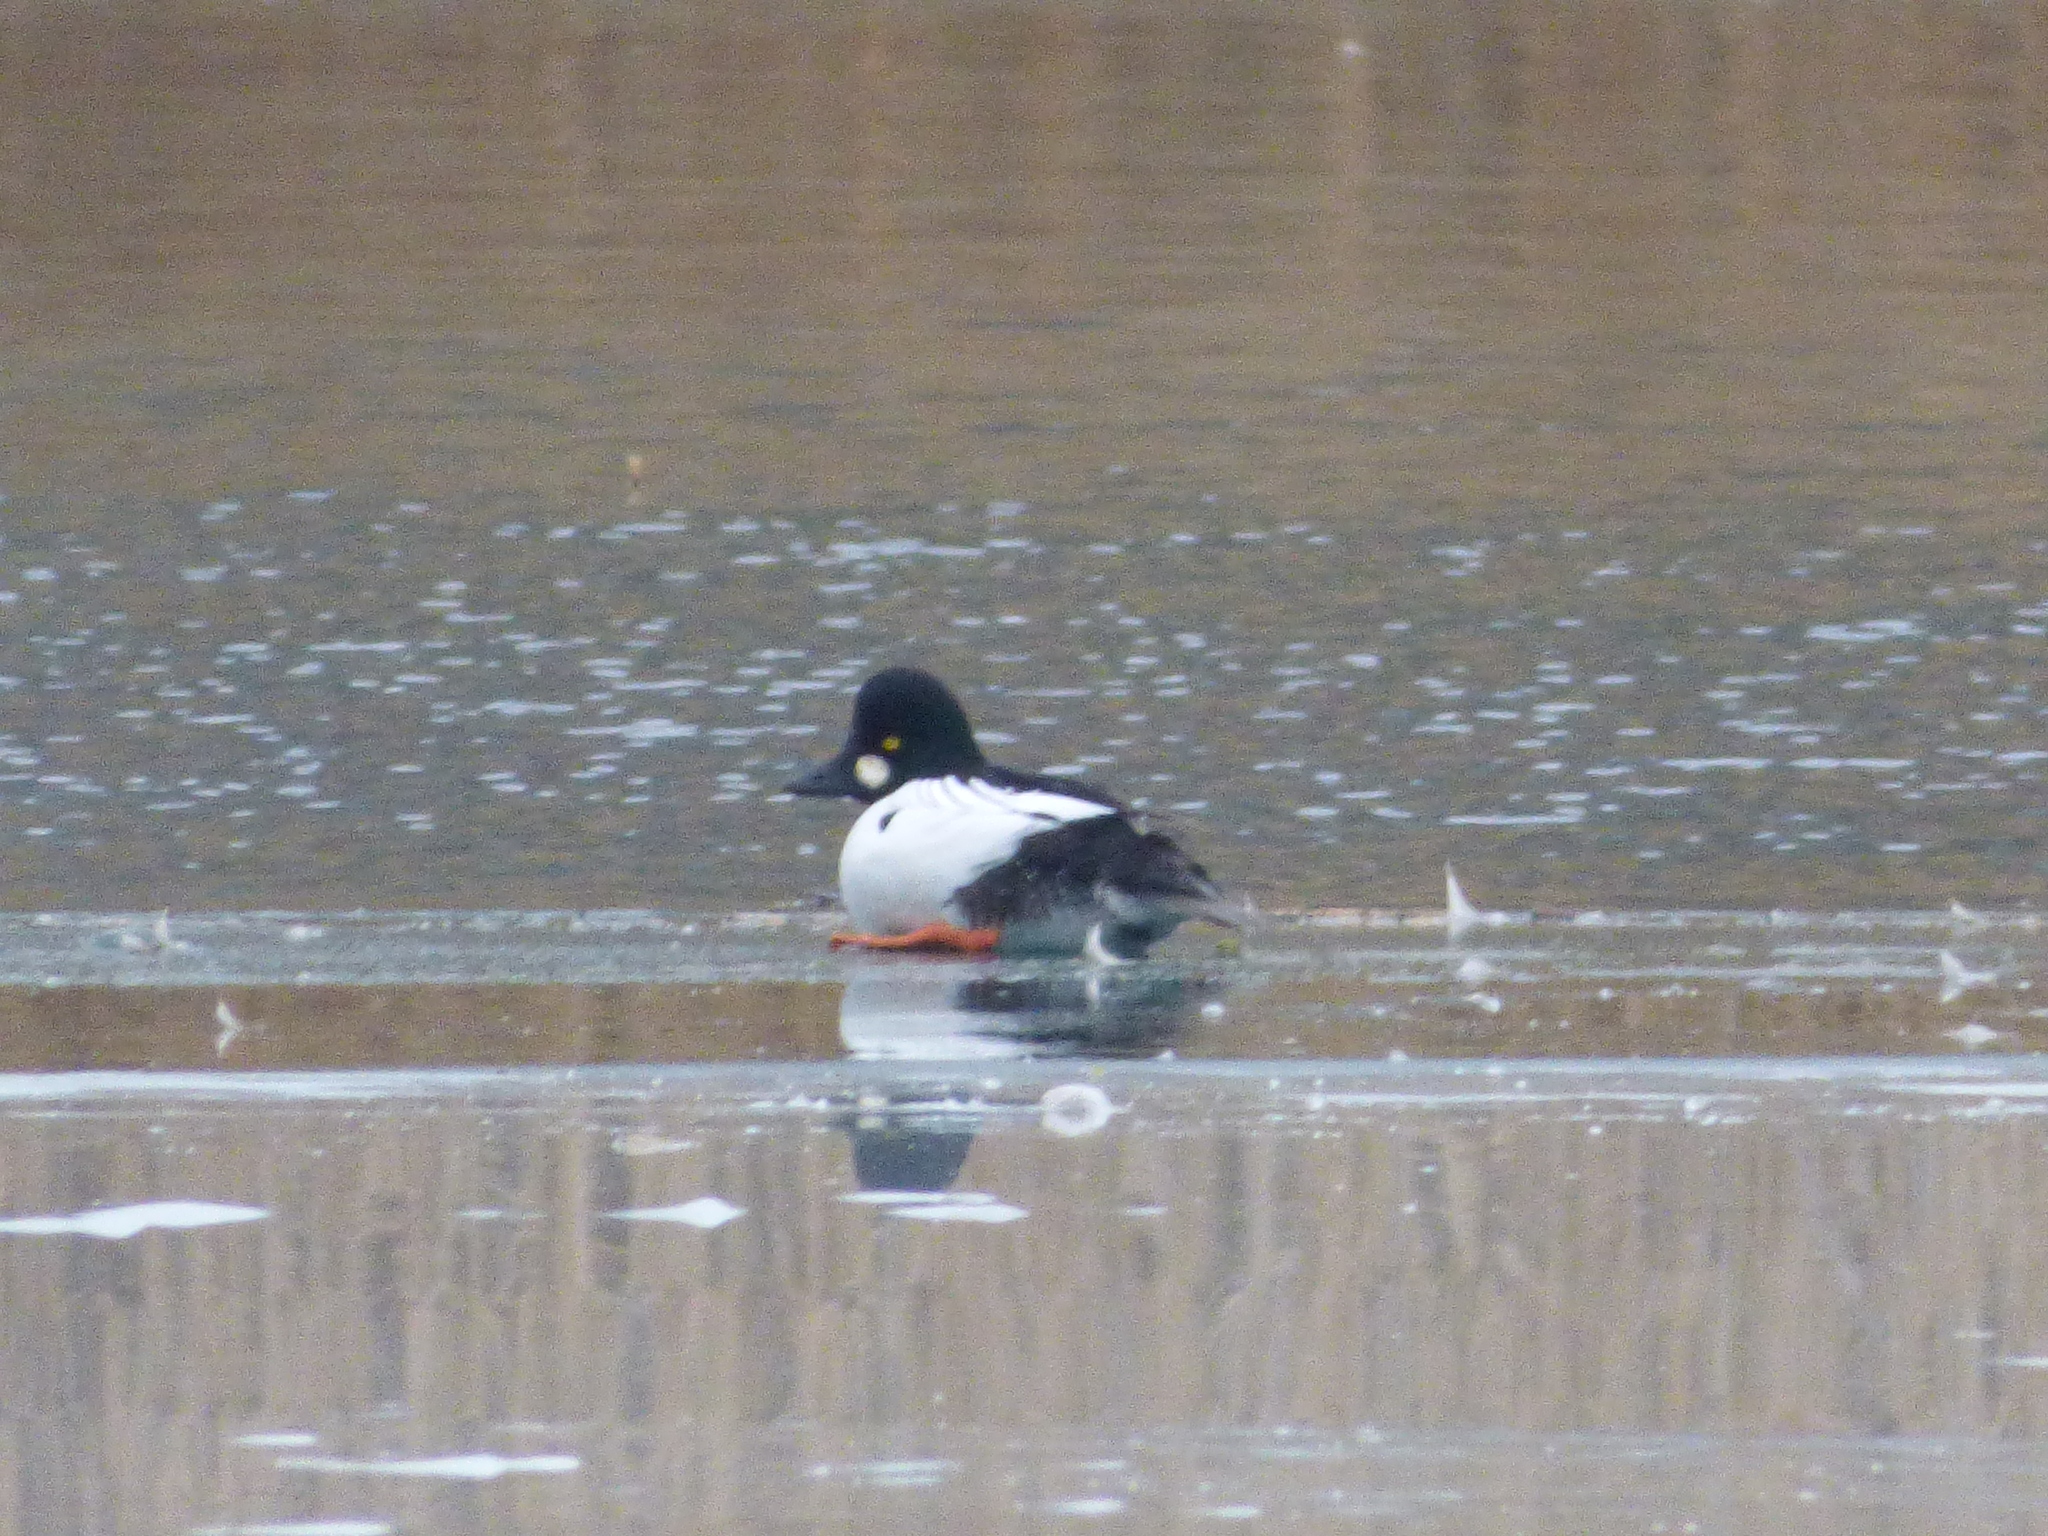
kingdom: Animalia
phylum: Chordata
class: Aves
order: Anseriformes
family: Anatidae
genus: Bucephala
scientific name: Bucephala clangula
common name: Common goldeneye
